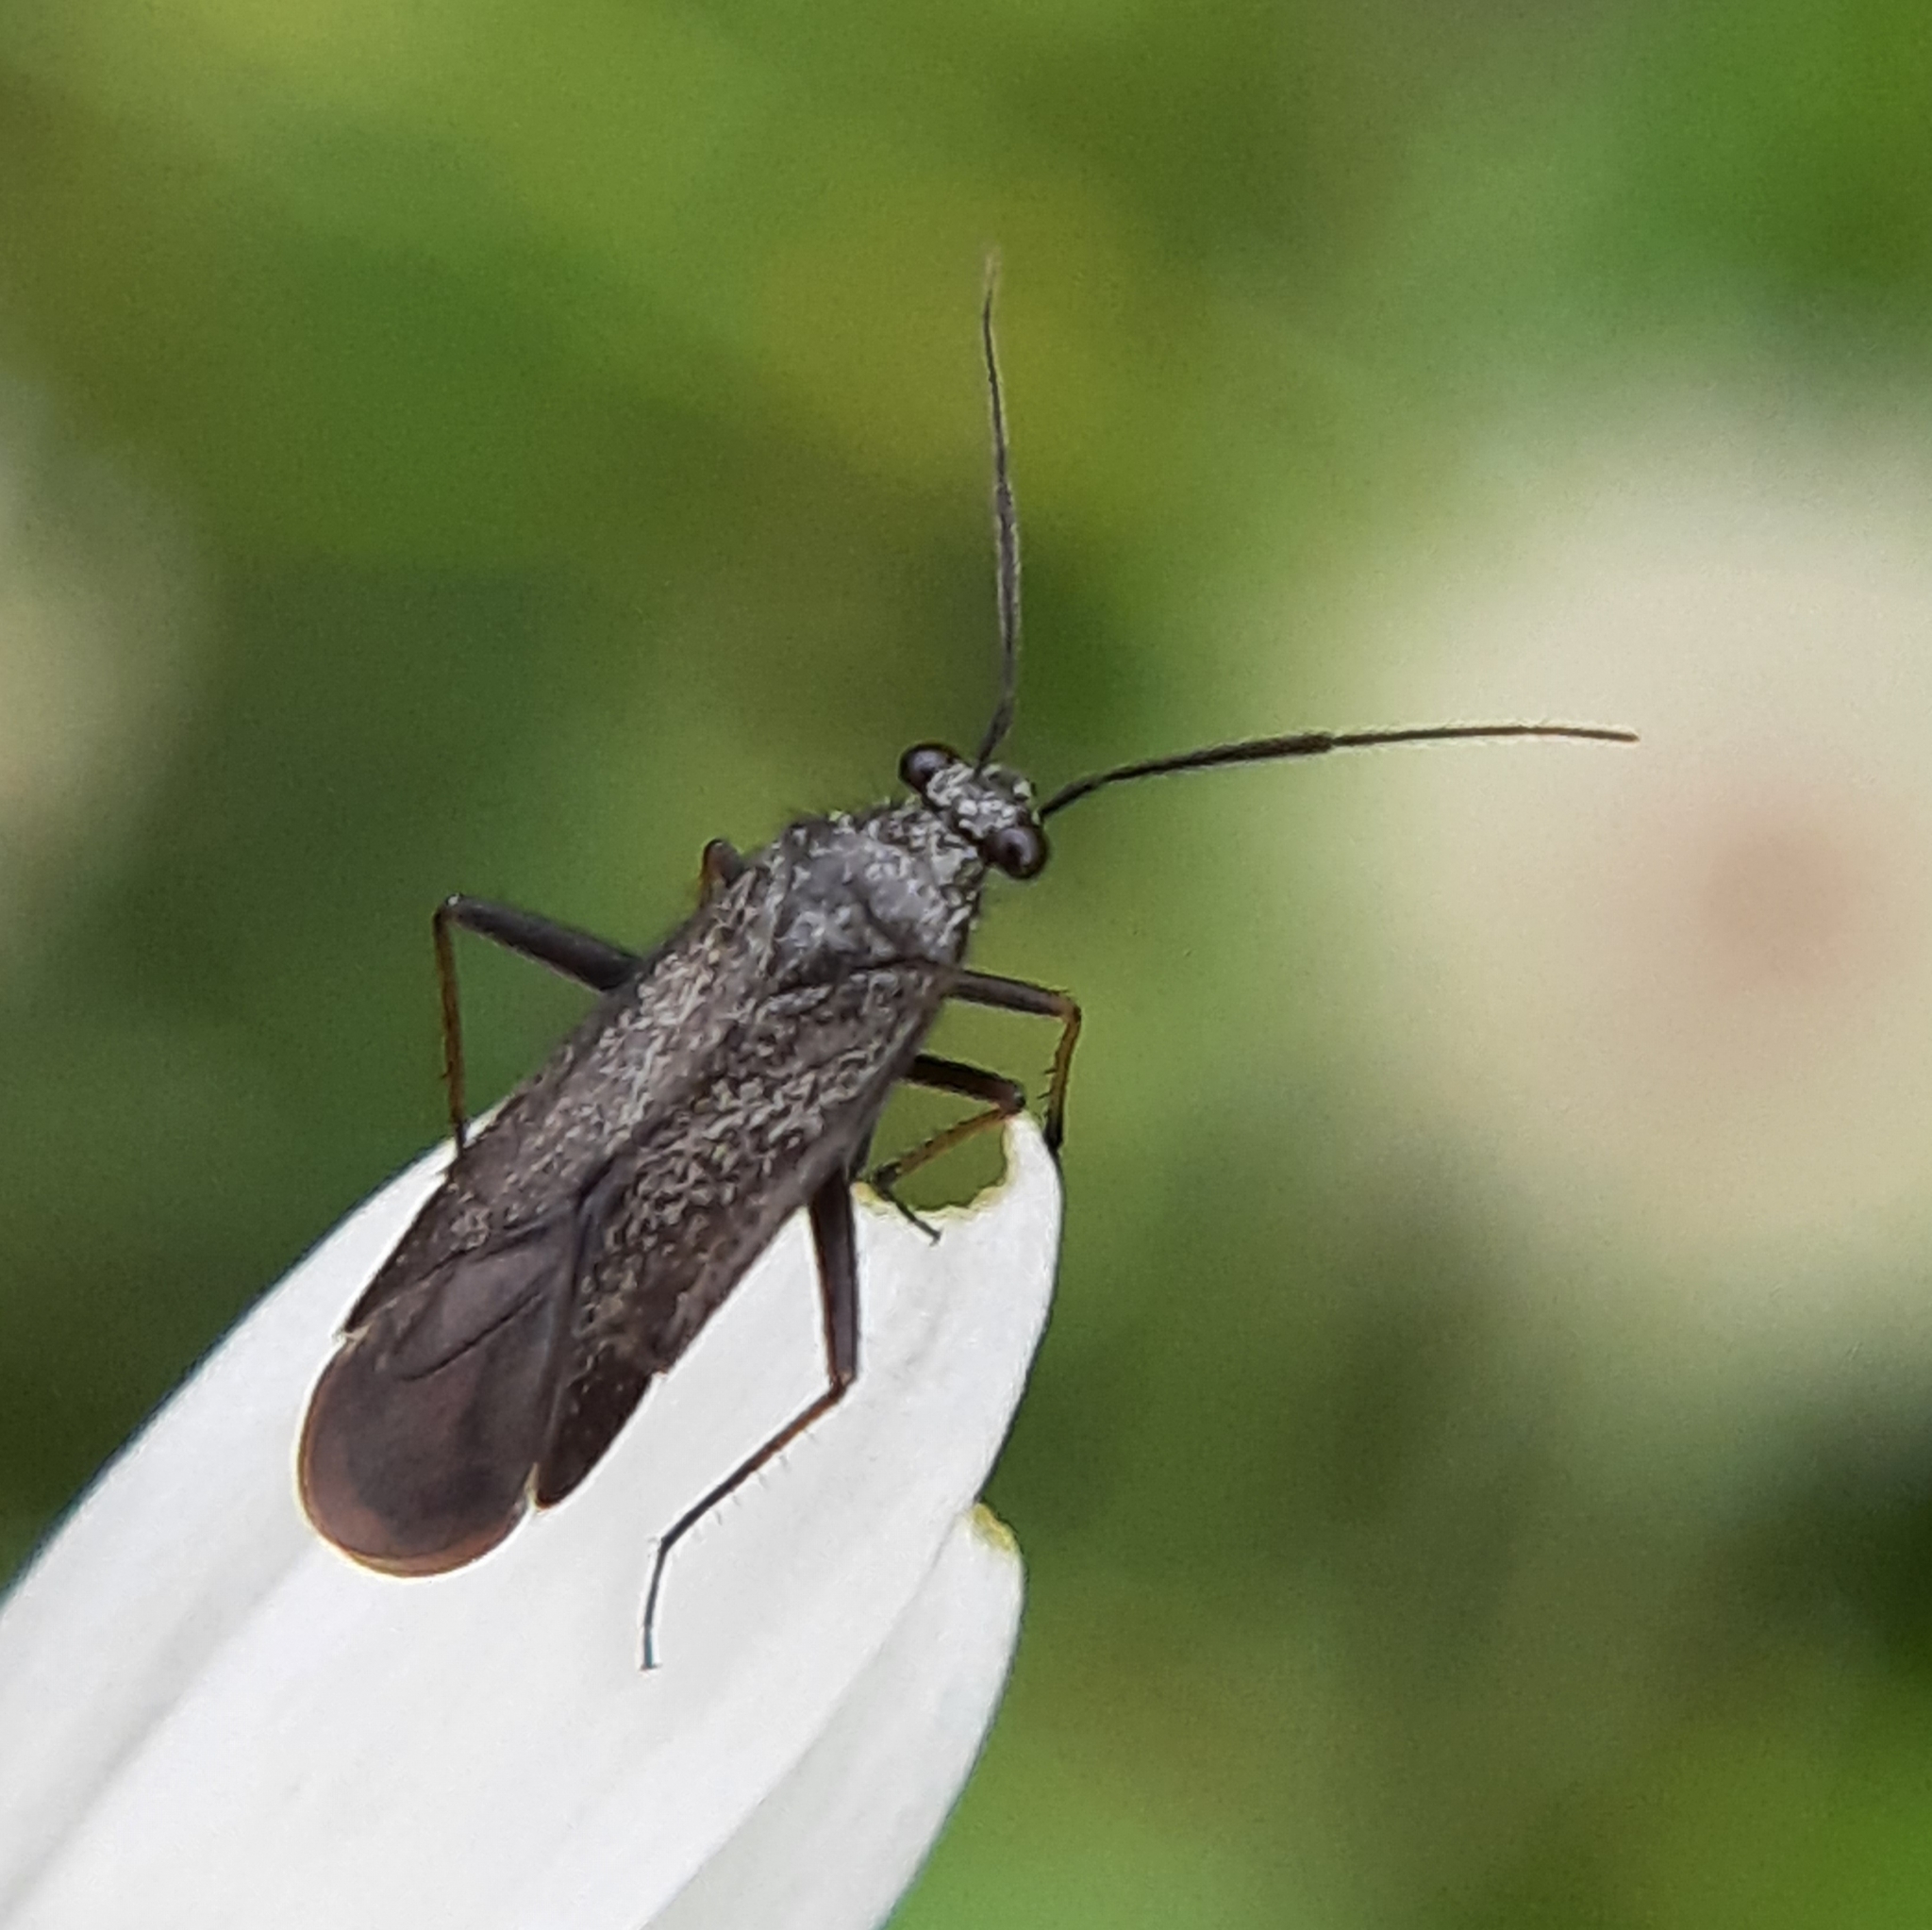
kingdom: Animalia
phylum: Arthropoda
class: Insecta
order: Hemiptera
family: Miridae
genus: Orthocephalus
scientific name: Orthocephalus saltator
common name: Plant bug
